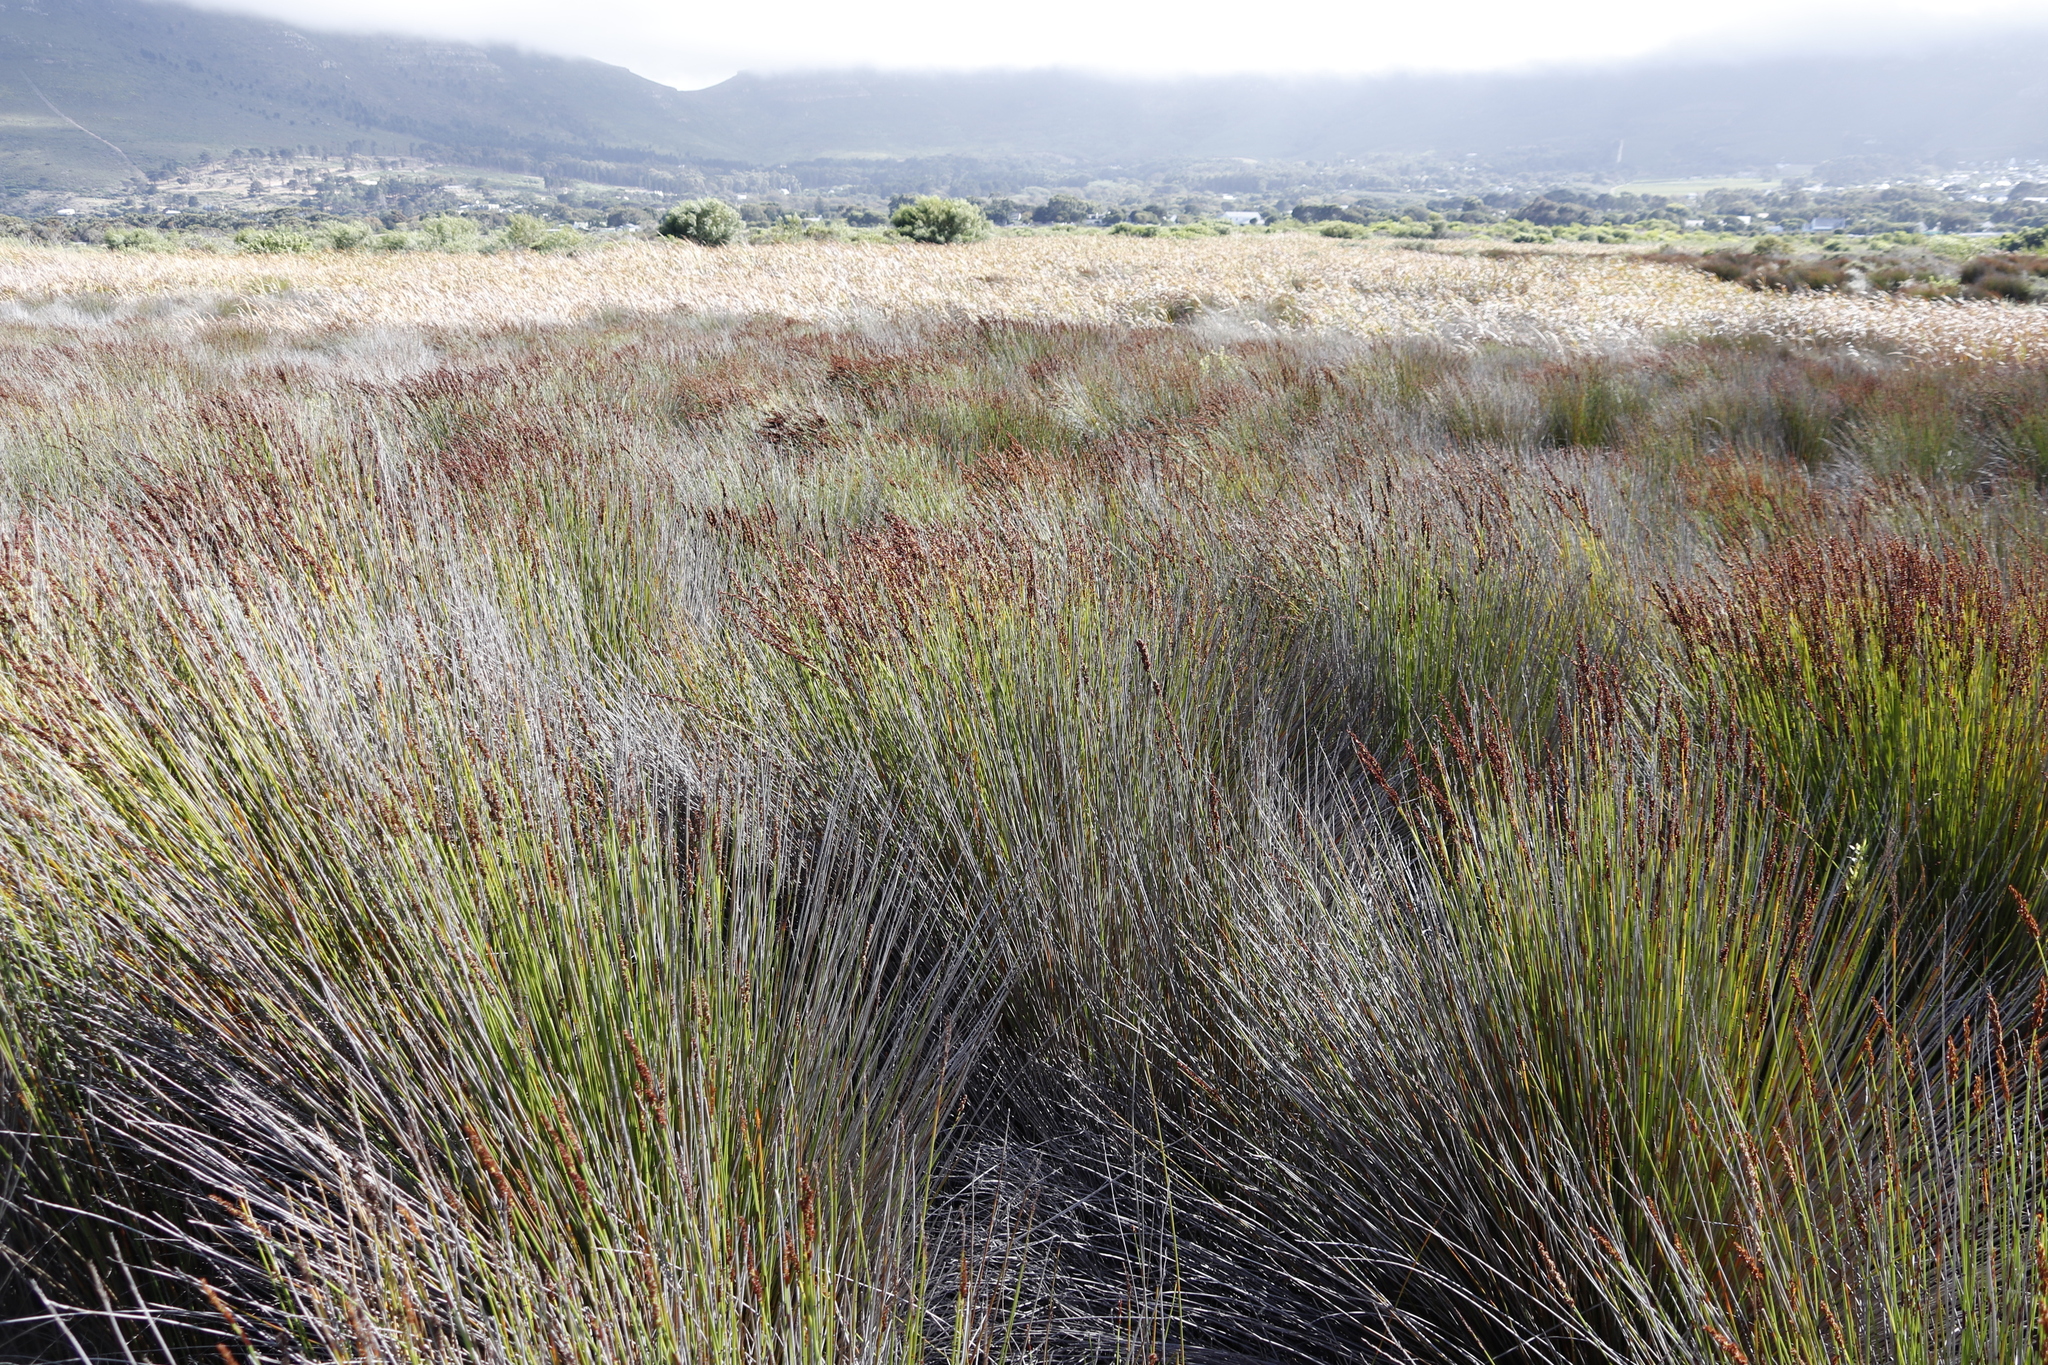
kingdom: Plantae
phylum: Tracheophyta
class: Liliopsida
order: Poales
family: Restionaceae
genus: Elegia
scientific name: Elegia tectorum
